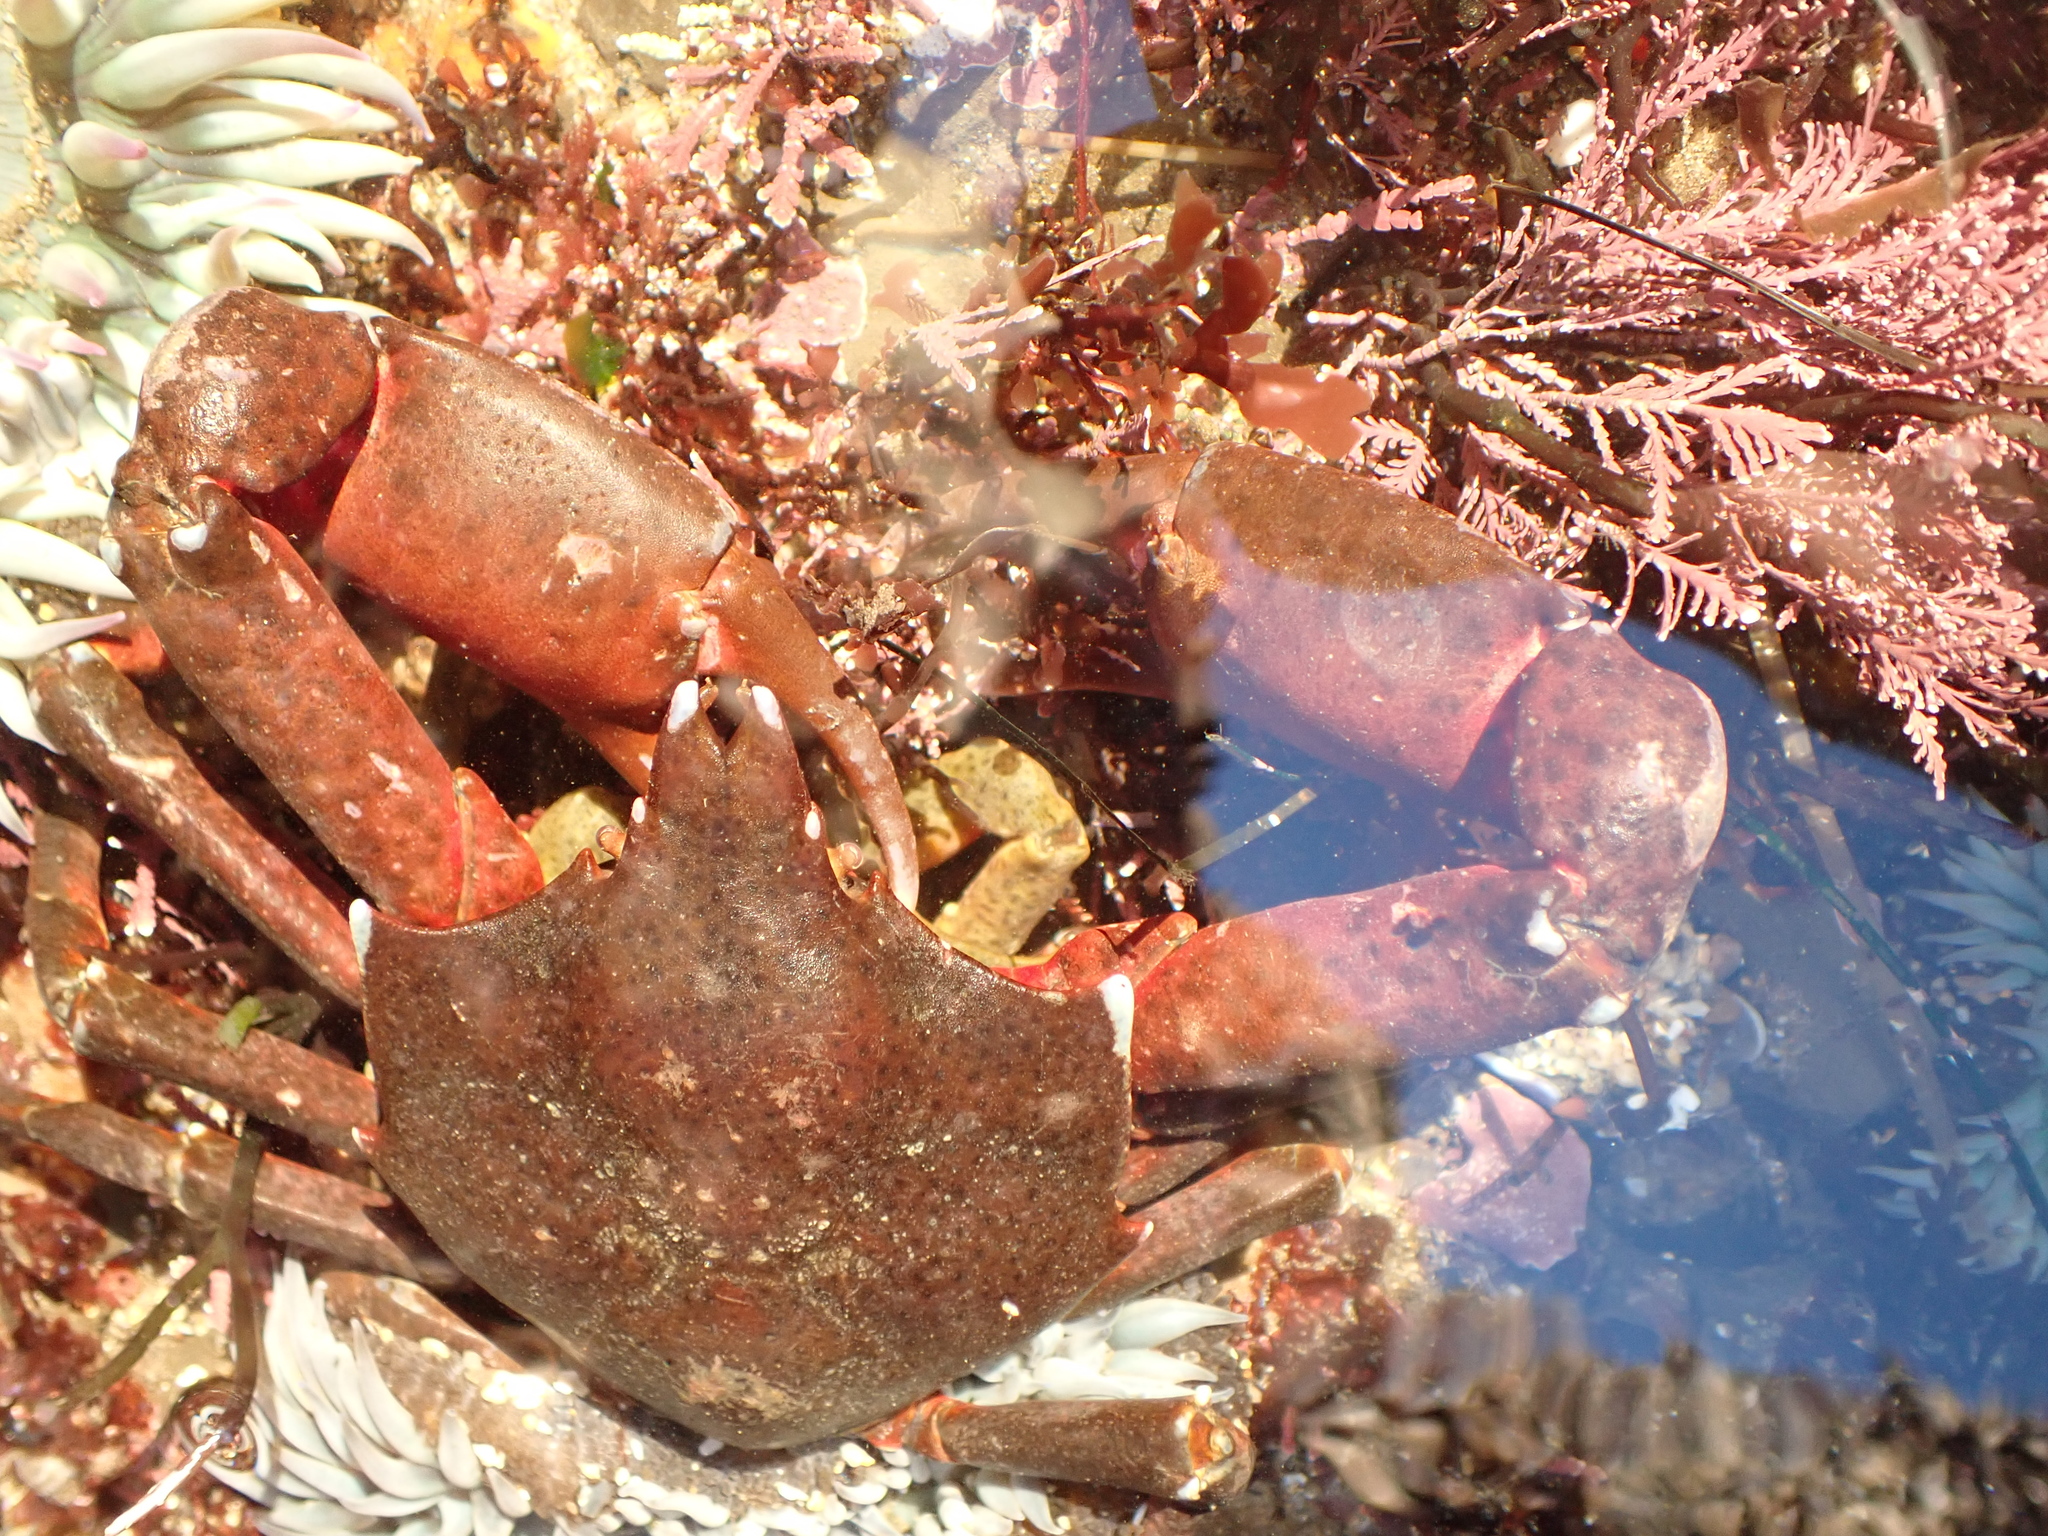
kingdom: Animalia
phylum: Arthropoda
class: Malacostraca
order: Decapoda
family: Epialtidae
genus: Pugettia
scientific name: Pugettia producta
